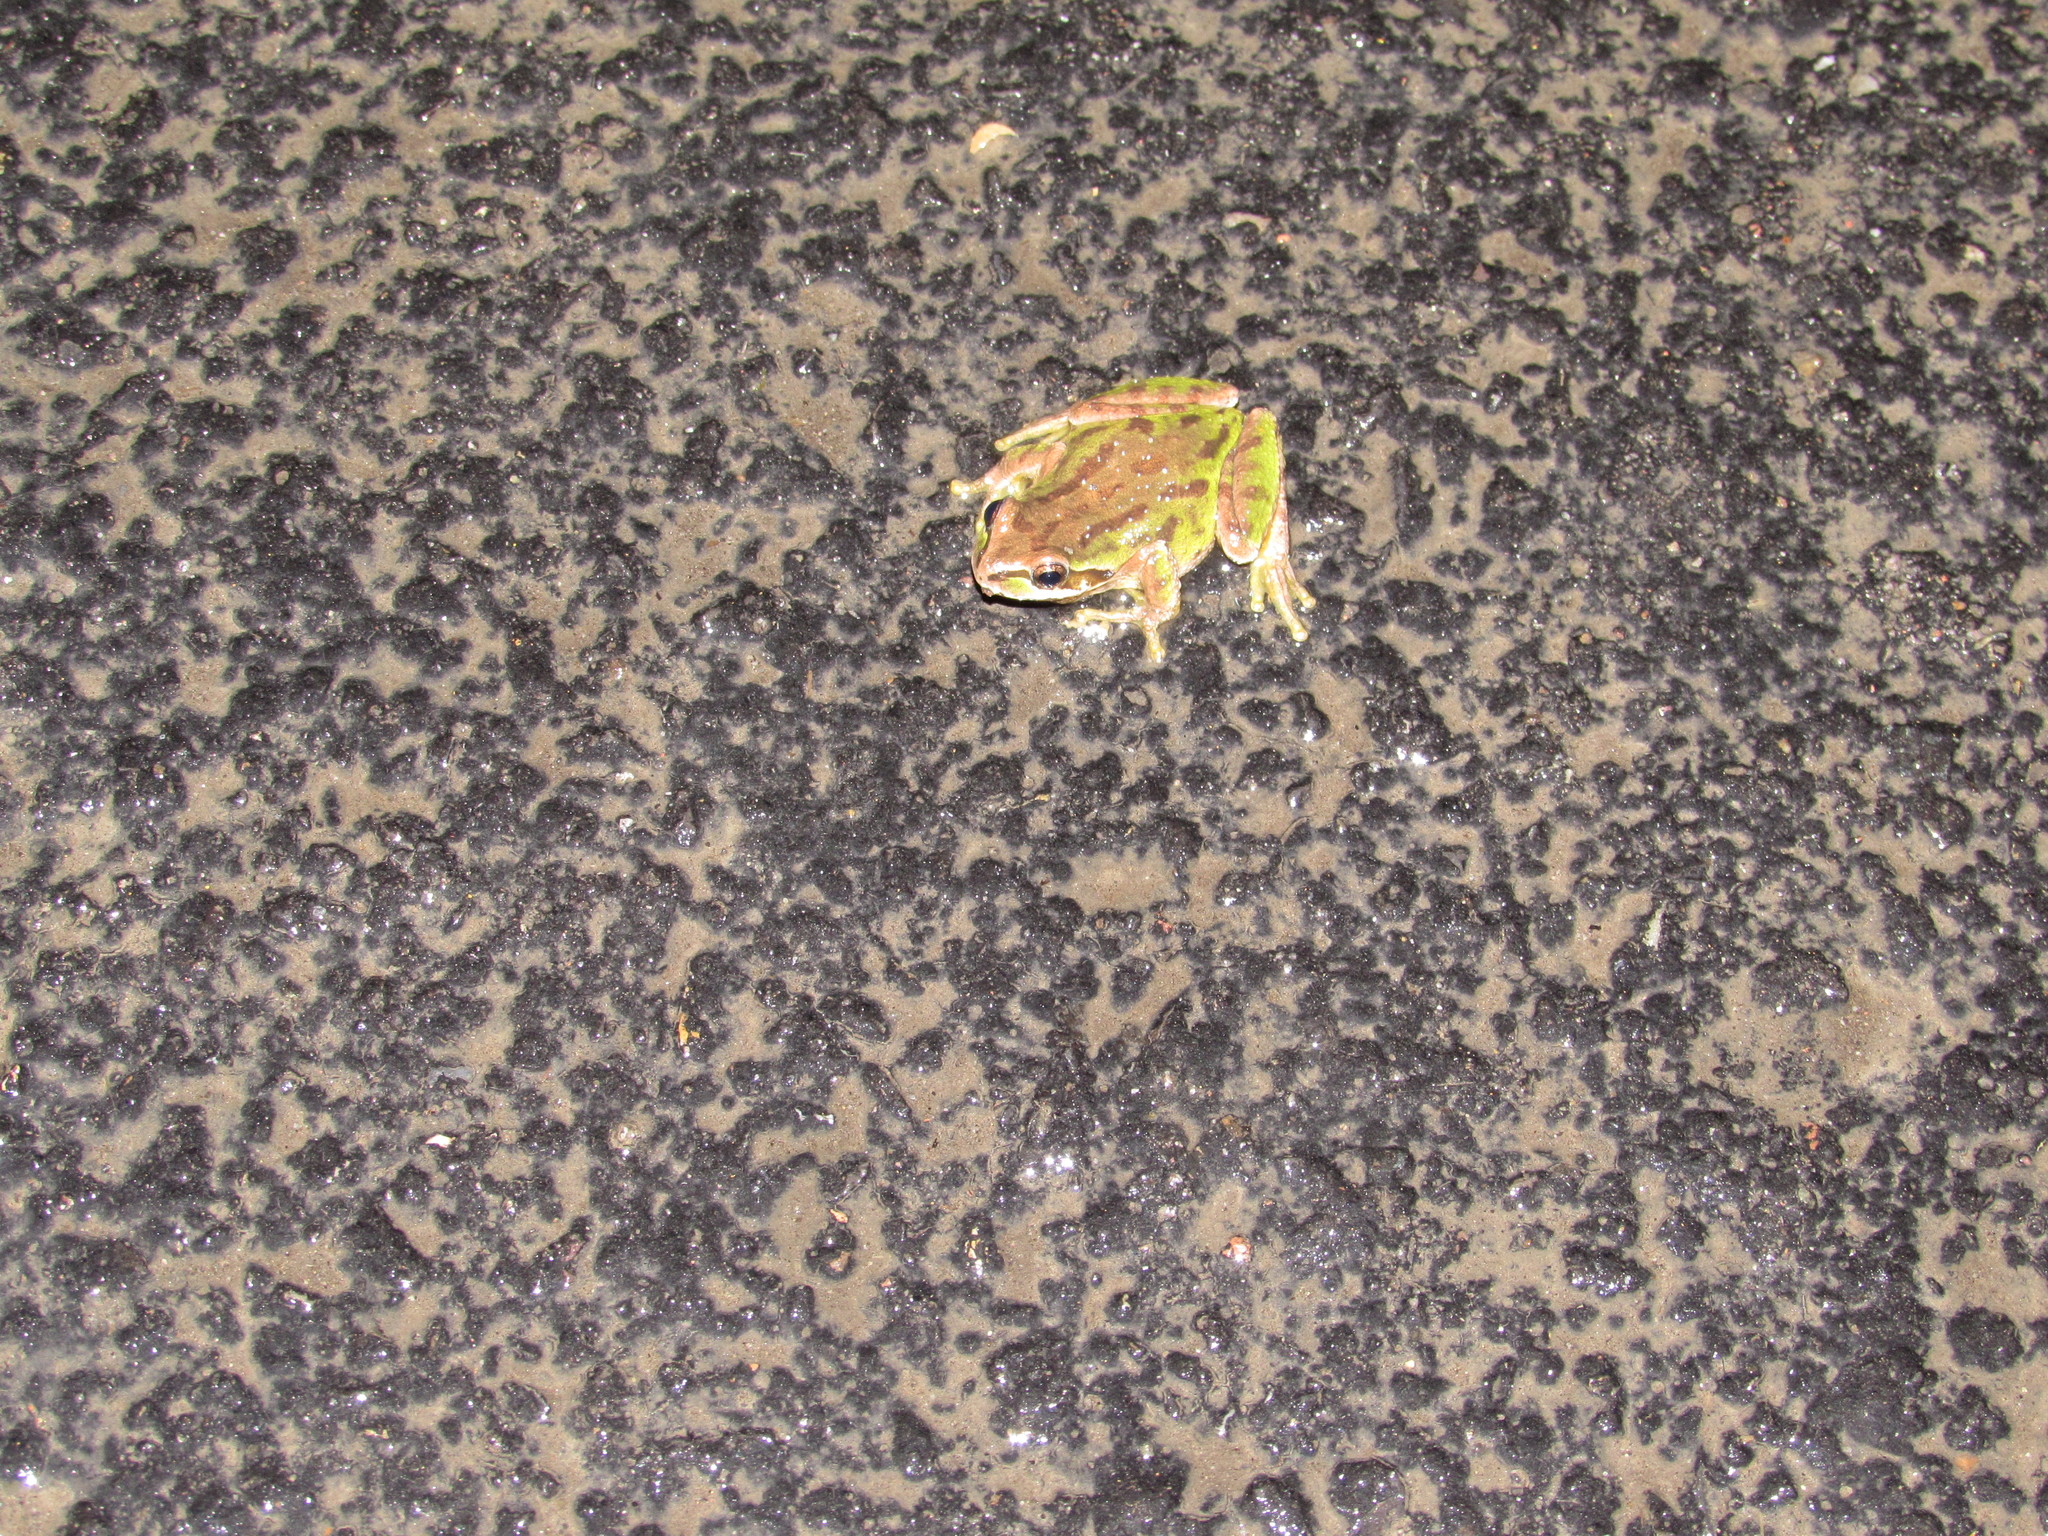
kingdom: Animalia
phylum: Chordata
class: Amphibia
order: Anura
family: Hylidae
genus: Pseudacris
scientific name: Pseudacris regilla
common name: Pacific chorus frog
